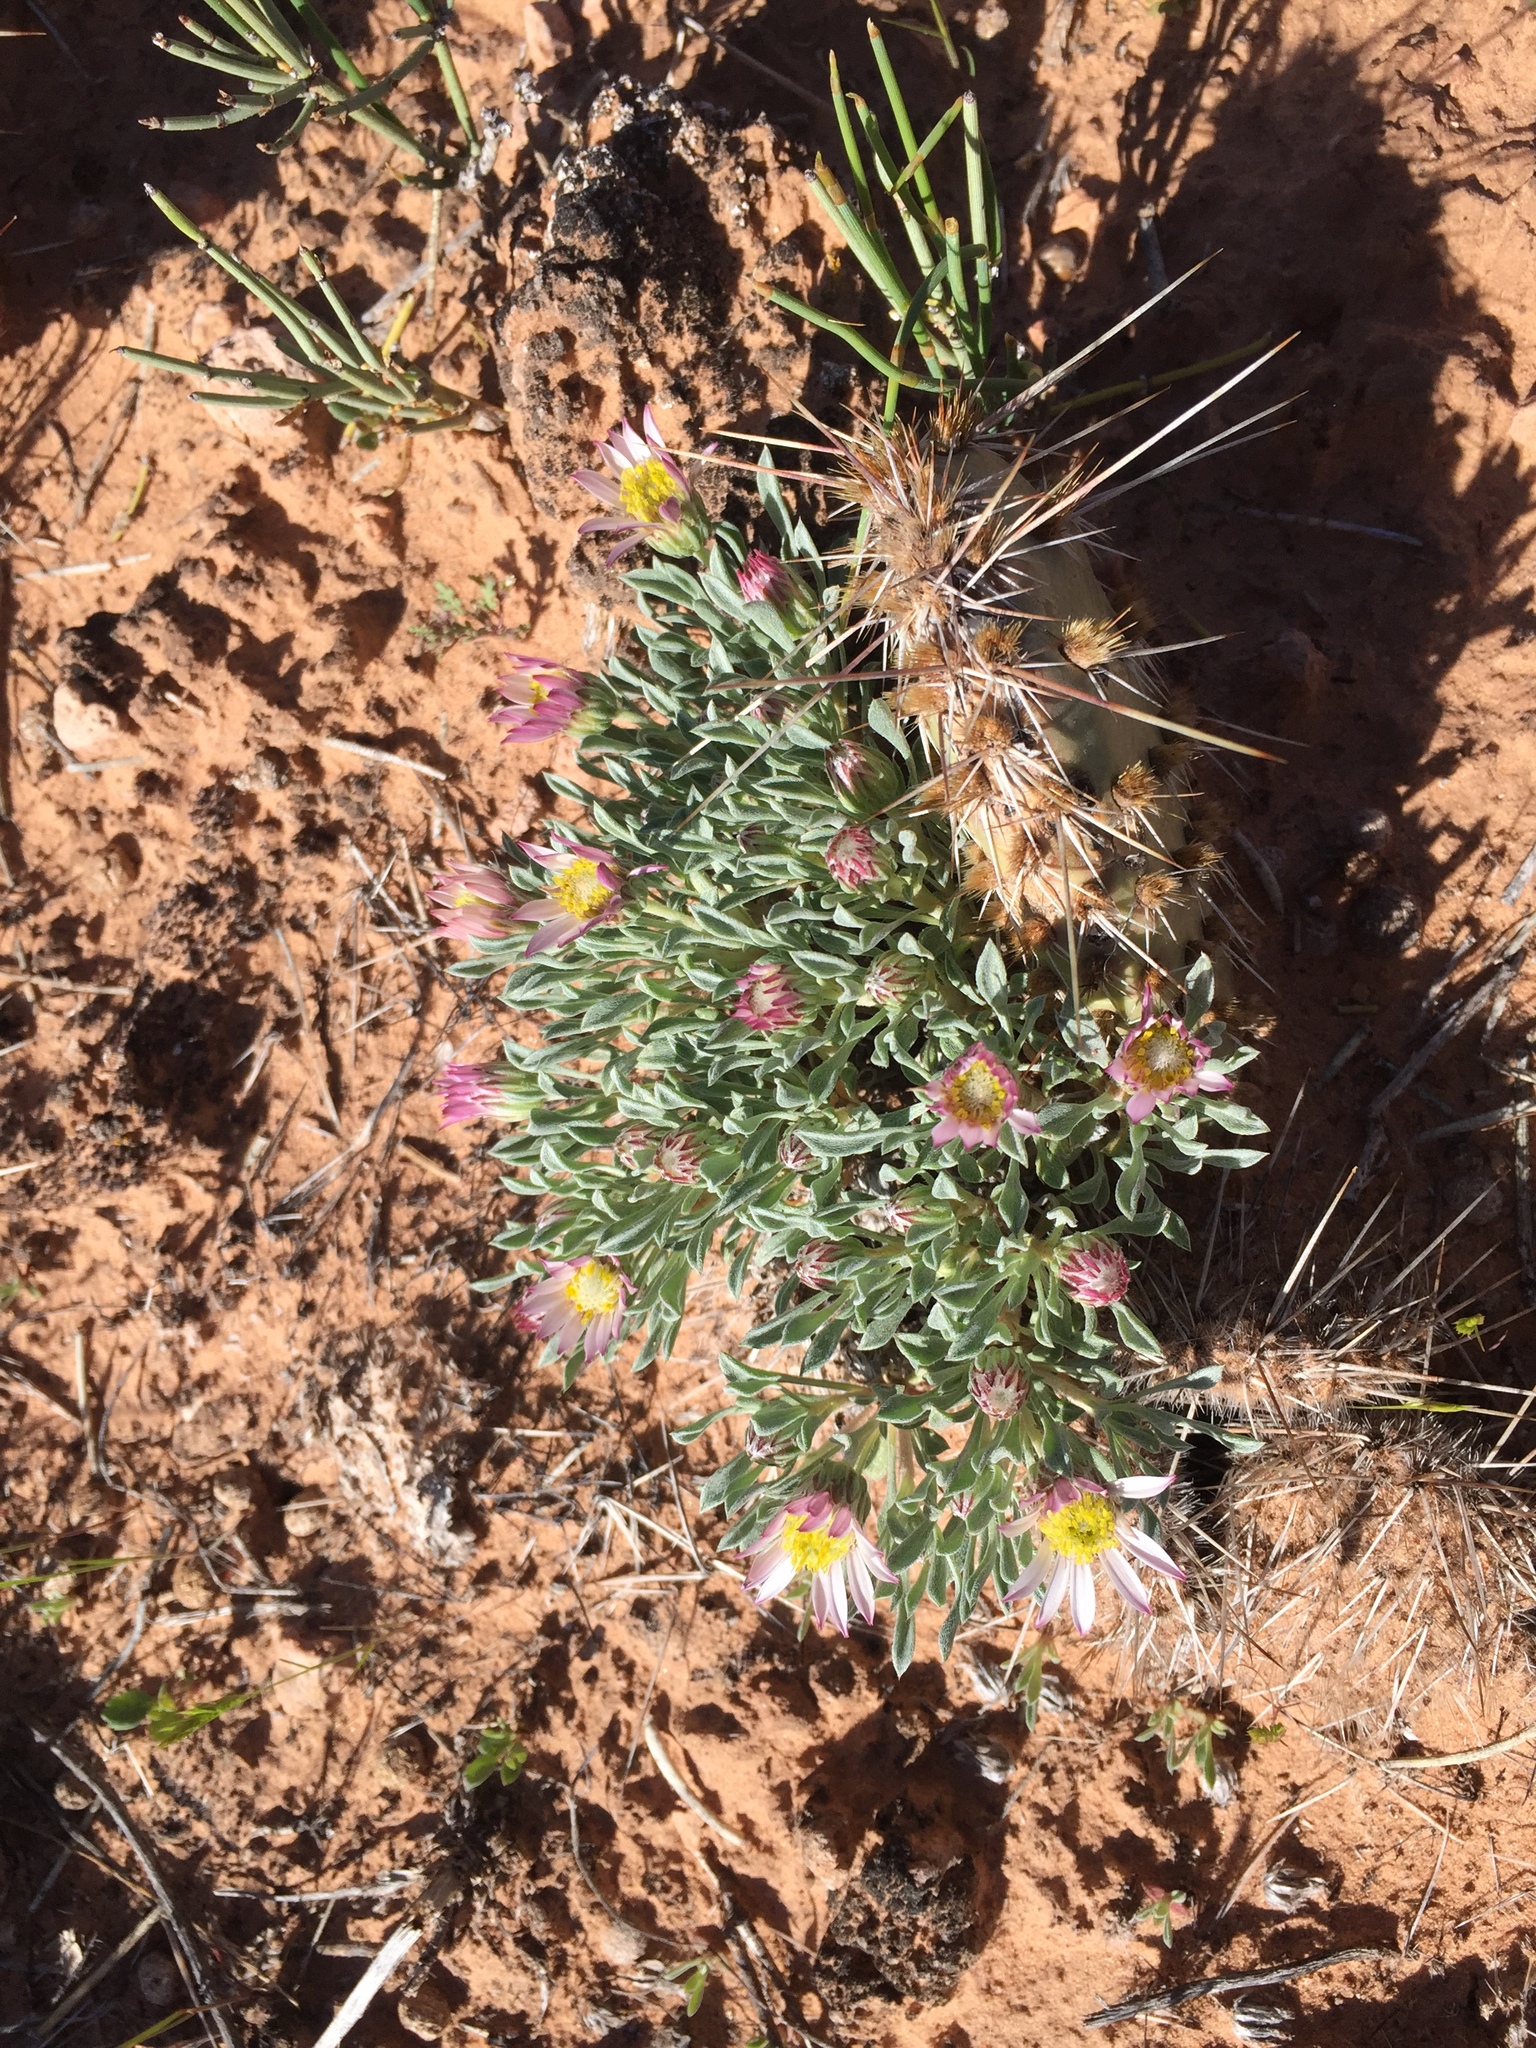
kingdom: Plantae
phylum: Tracheophyta
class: Magnoliopsida
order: Asterales
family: Asteraceae
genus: Townsendia
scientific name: Townsendia incana
